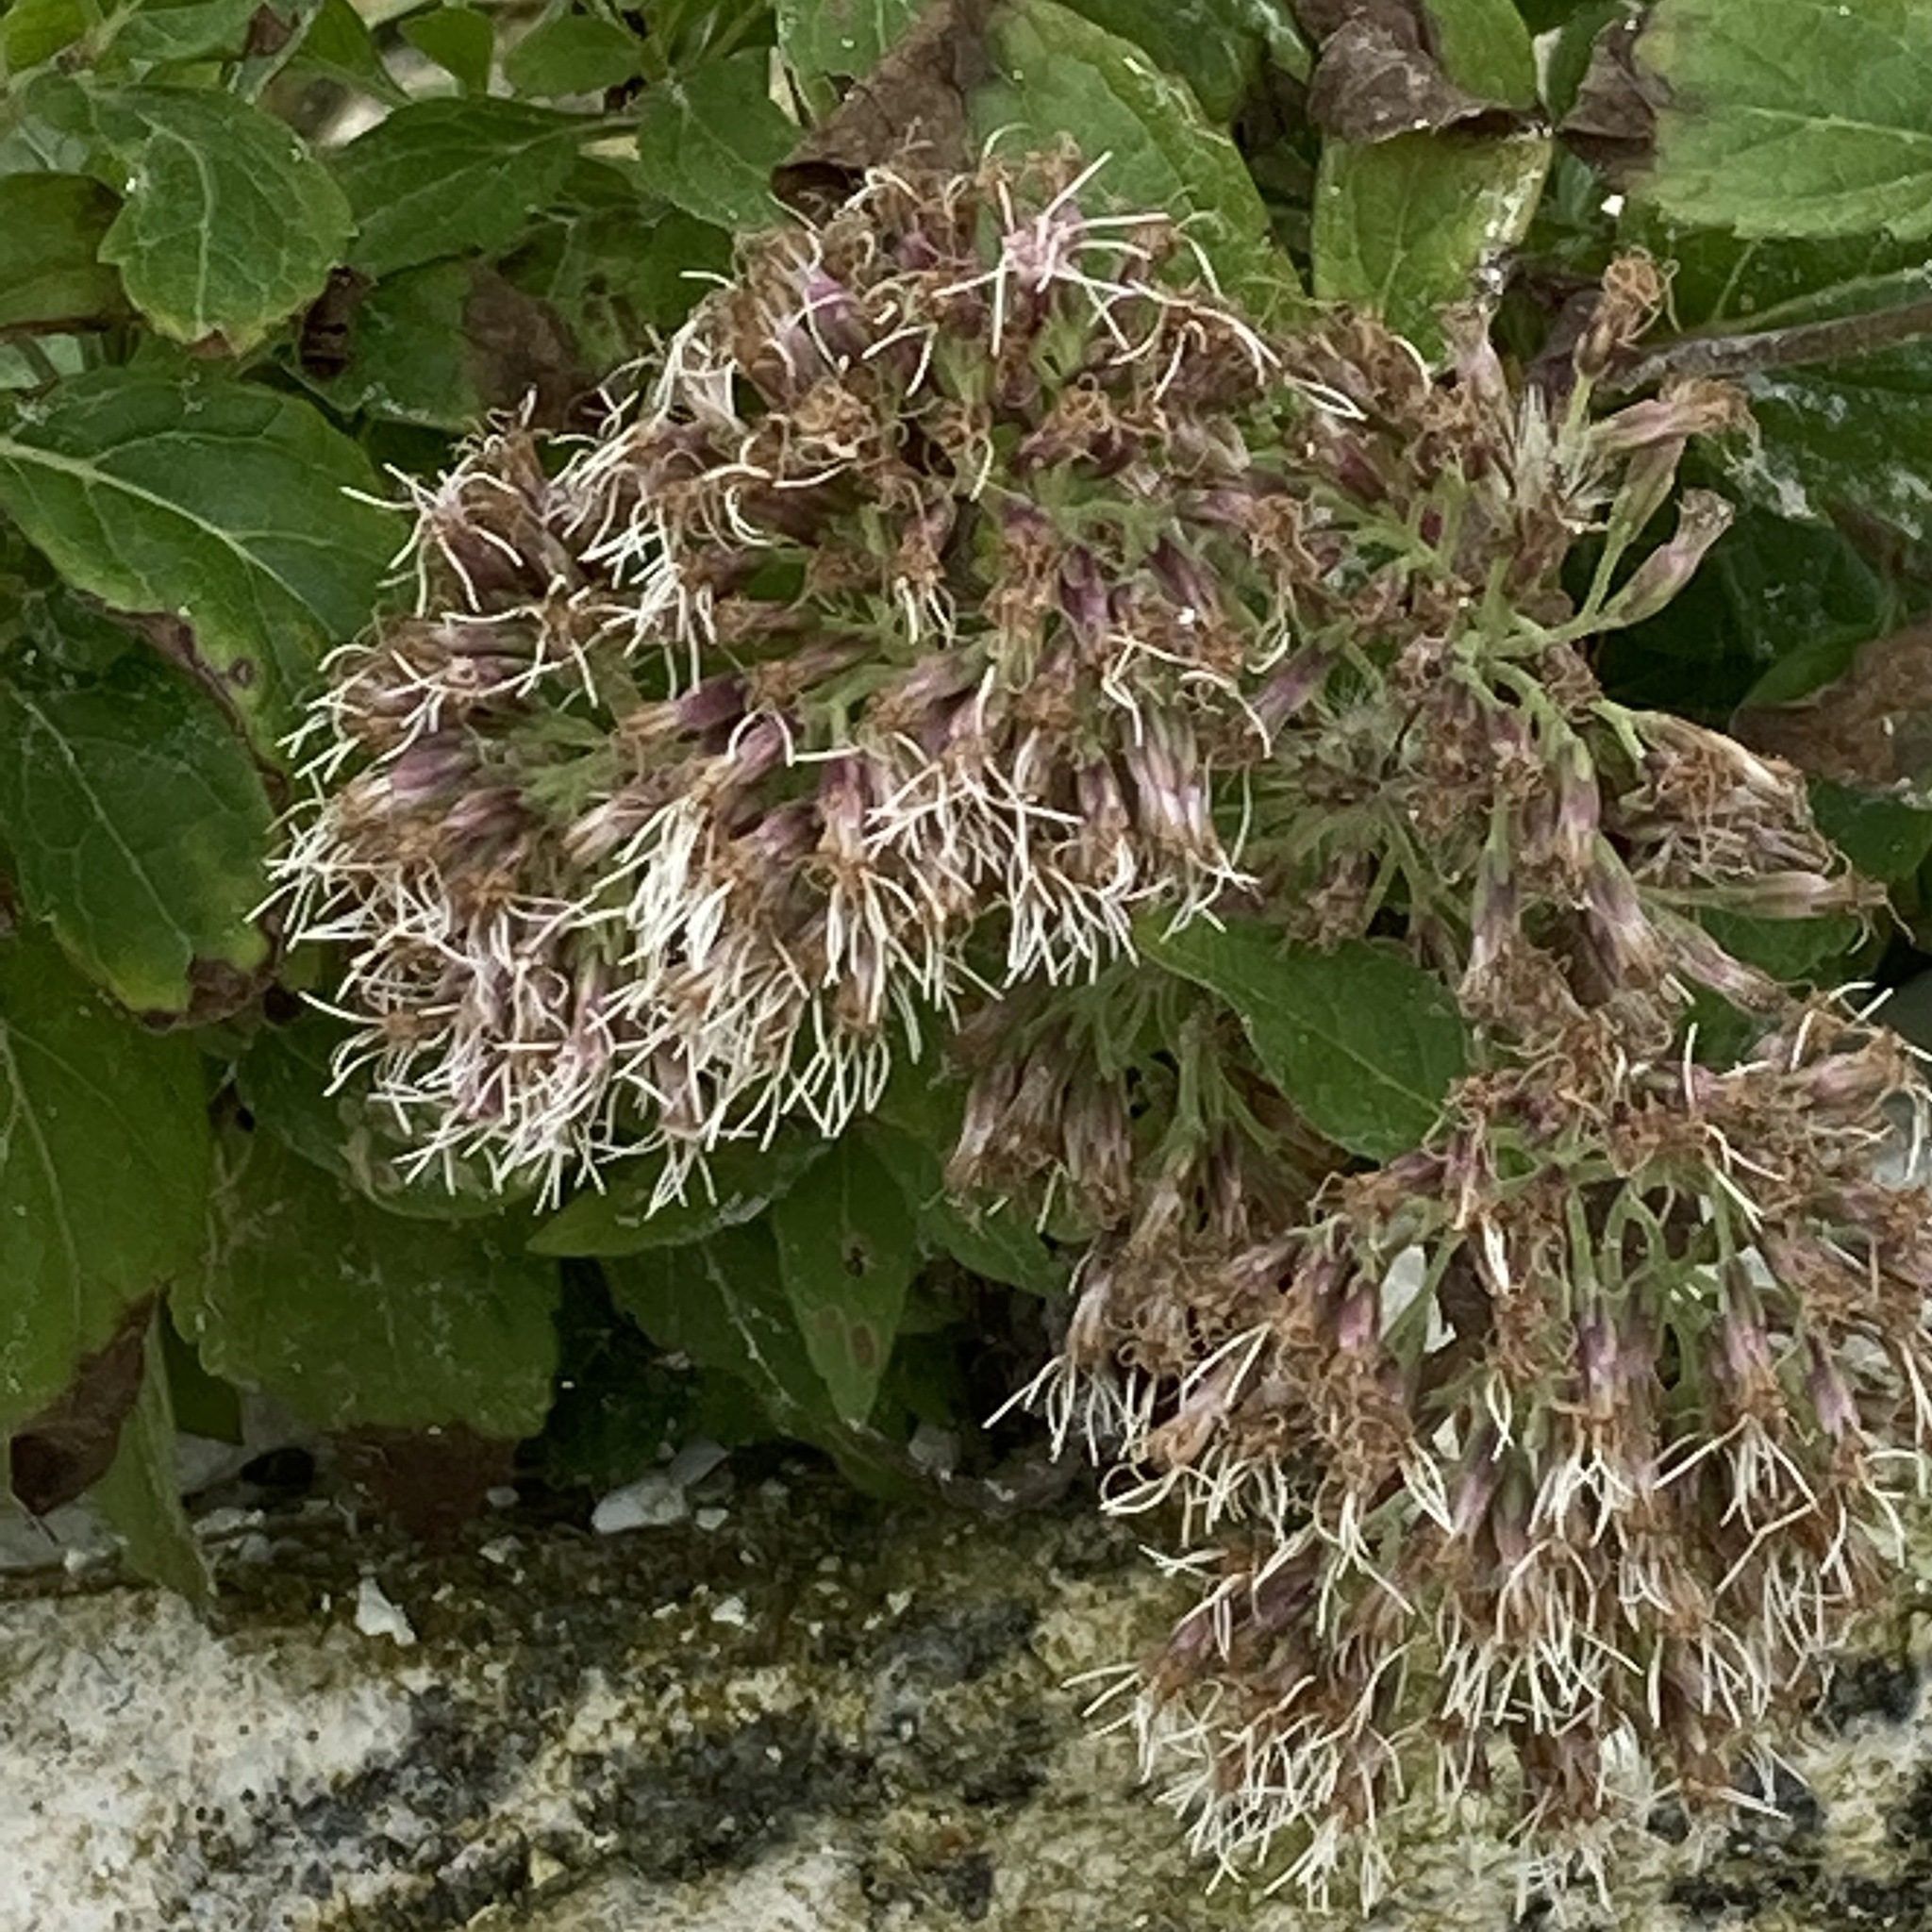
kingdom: Plantae
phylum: Tracheophyta
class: Magnoliopsida
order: Asterales
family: Asteraceae
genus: Eupatorium
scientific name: Eupatorium cannabinum
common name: Hemp-agrimony
